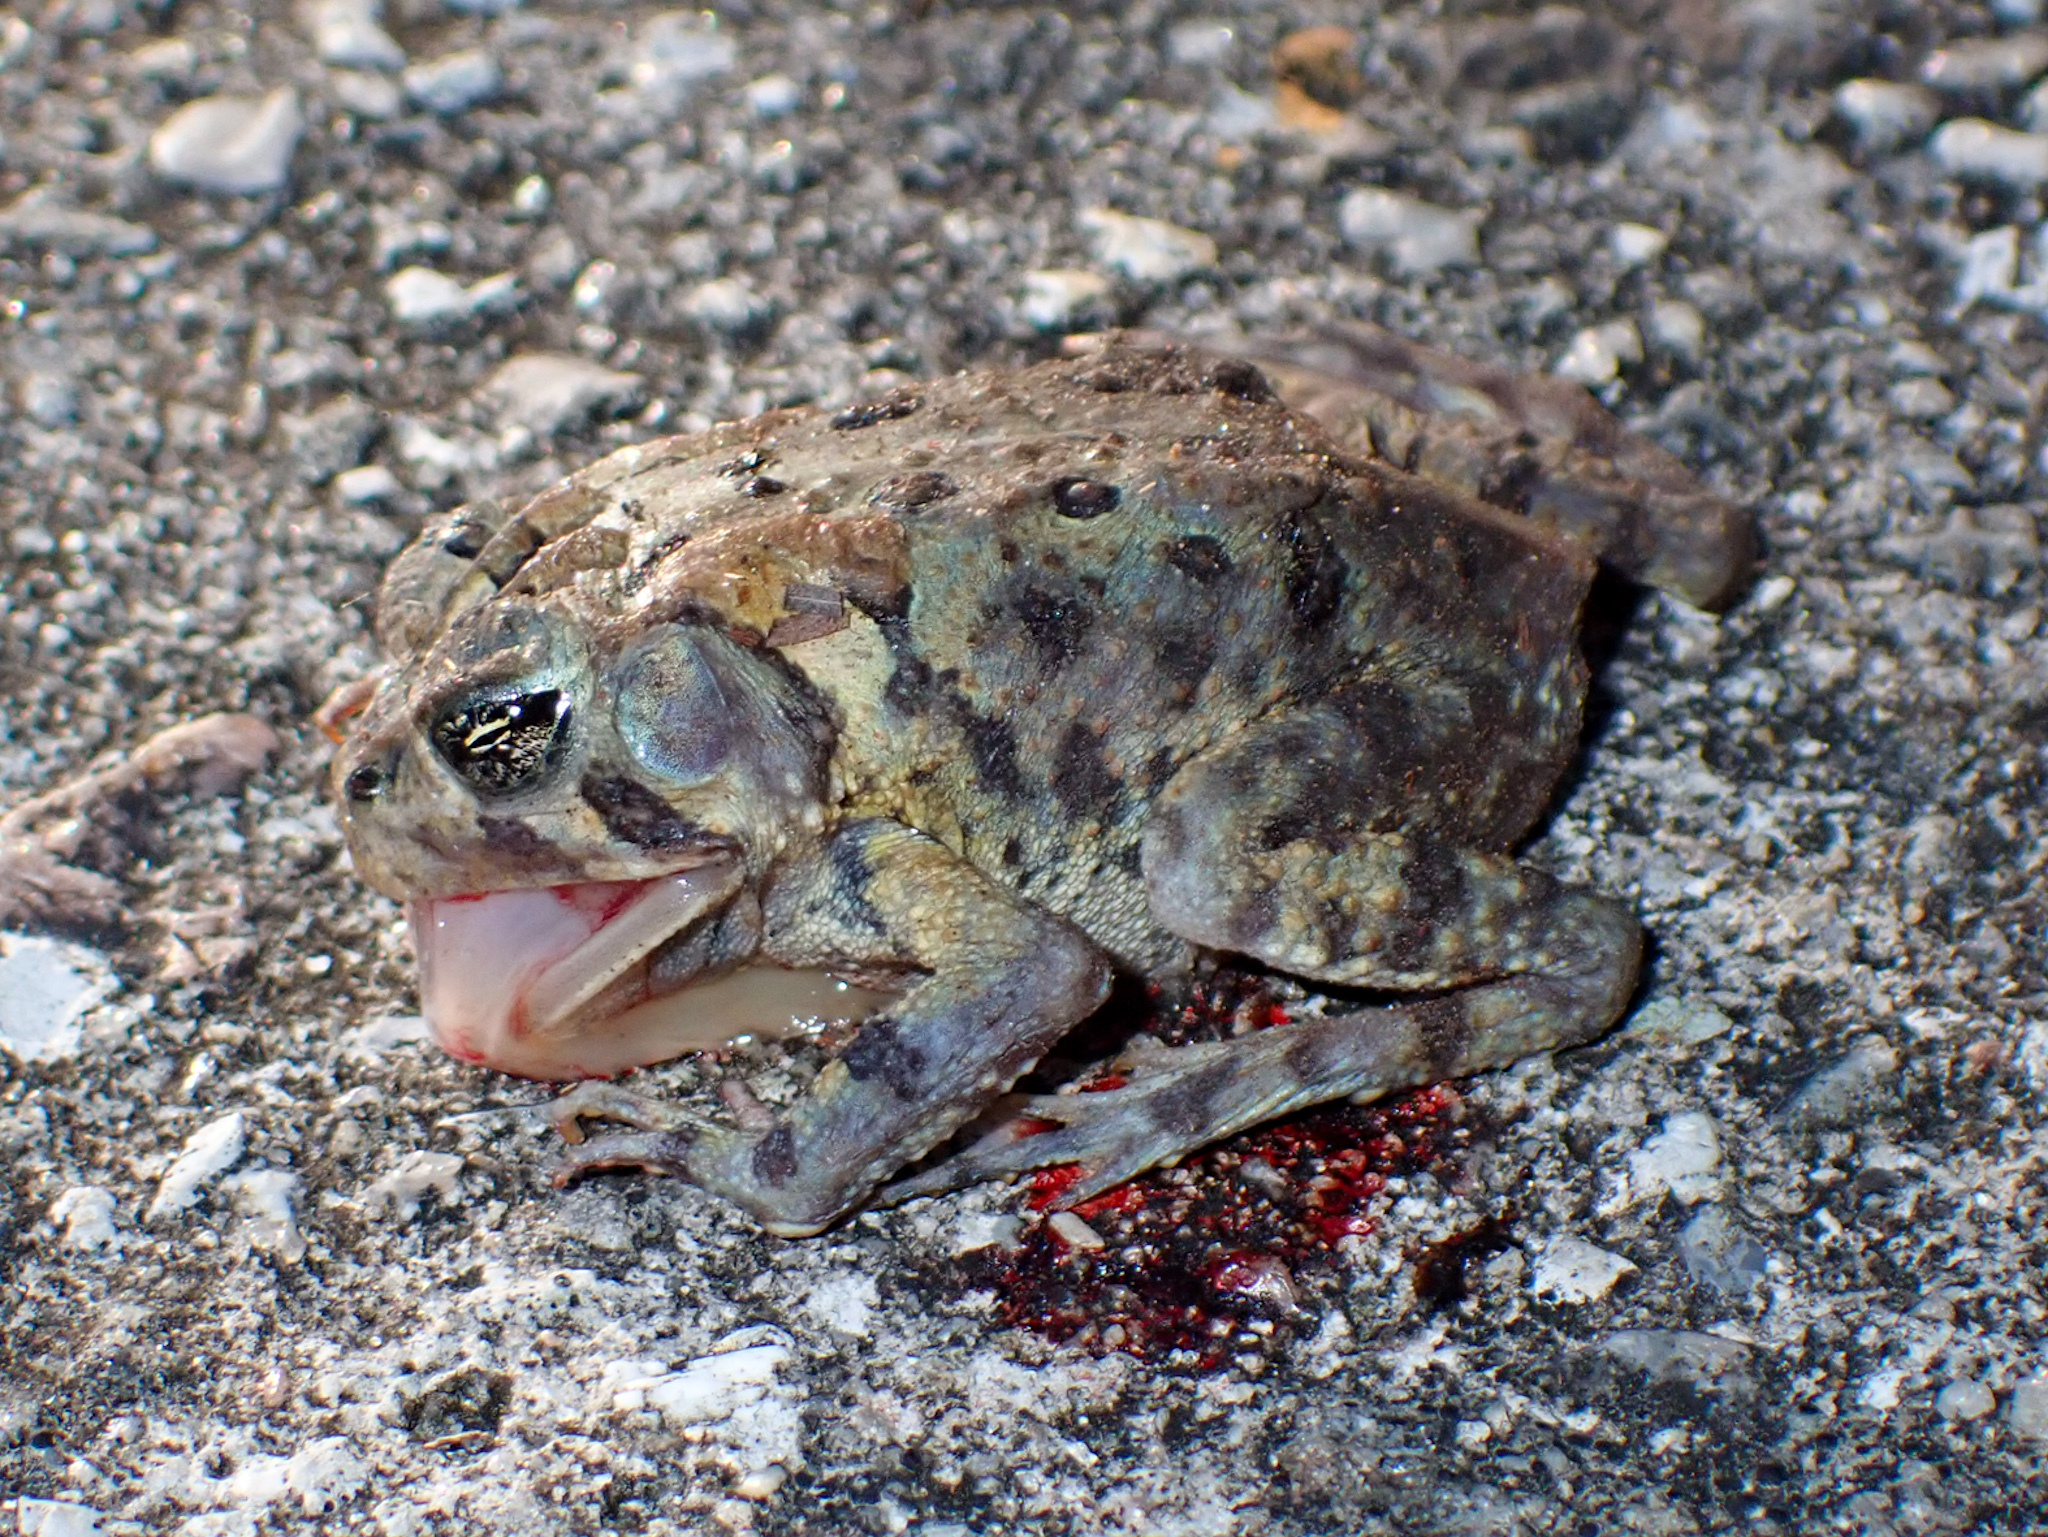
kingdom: Animalia
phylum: Chordata
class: Amphibia
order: Anura
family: Bufonidae
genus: Anaxyrus
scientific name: Anaxyrus terrestris
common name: Southern toad
